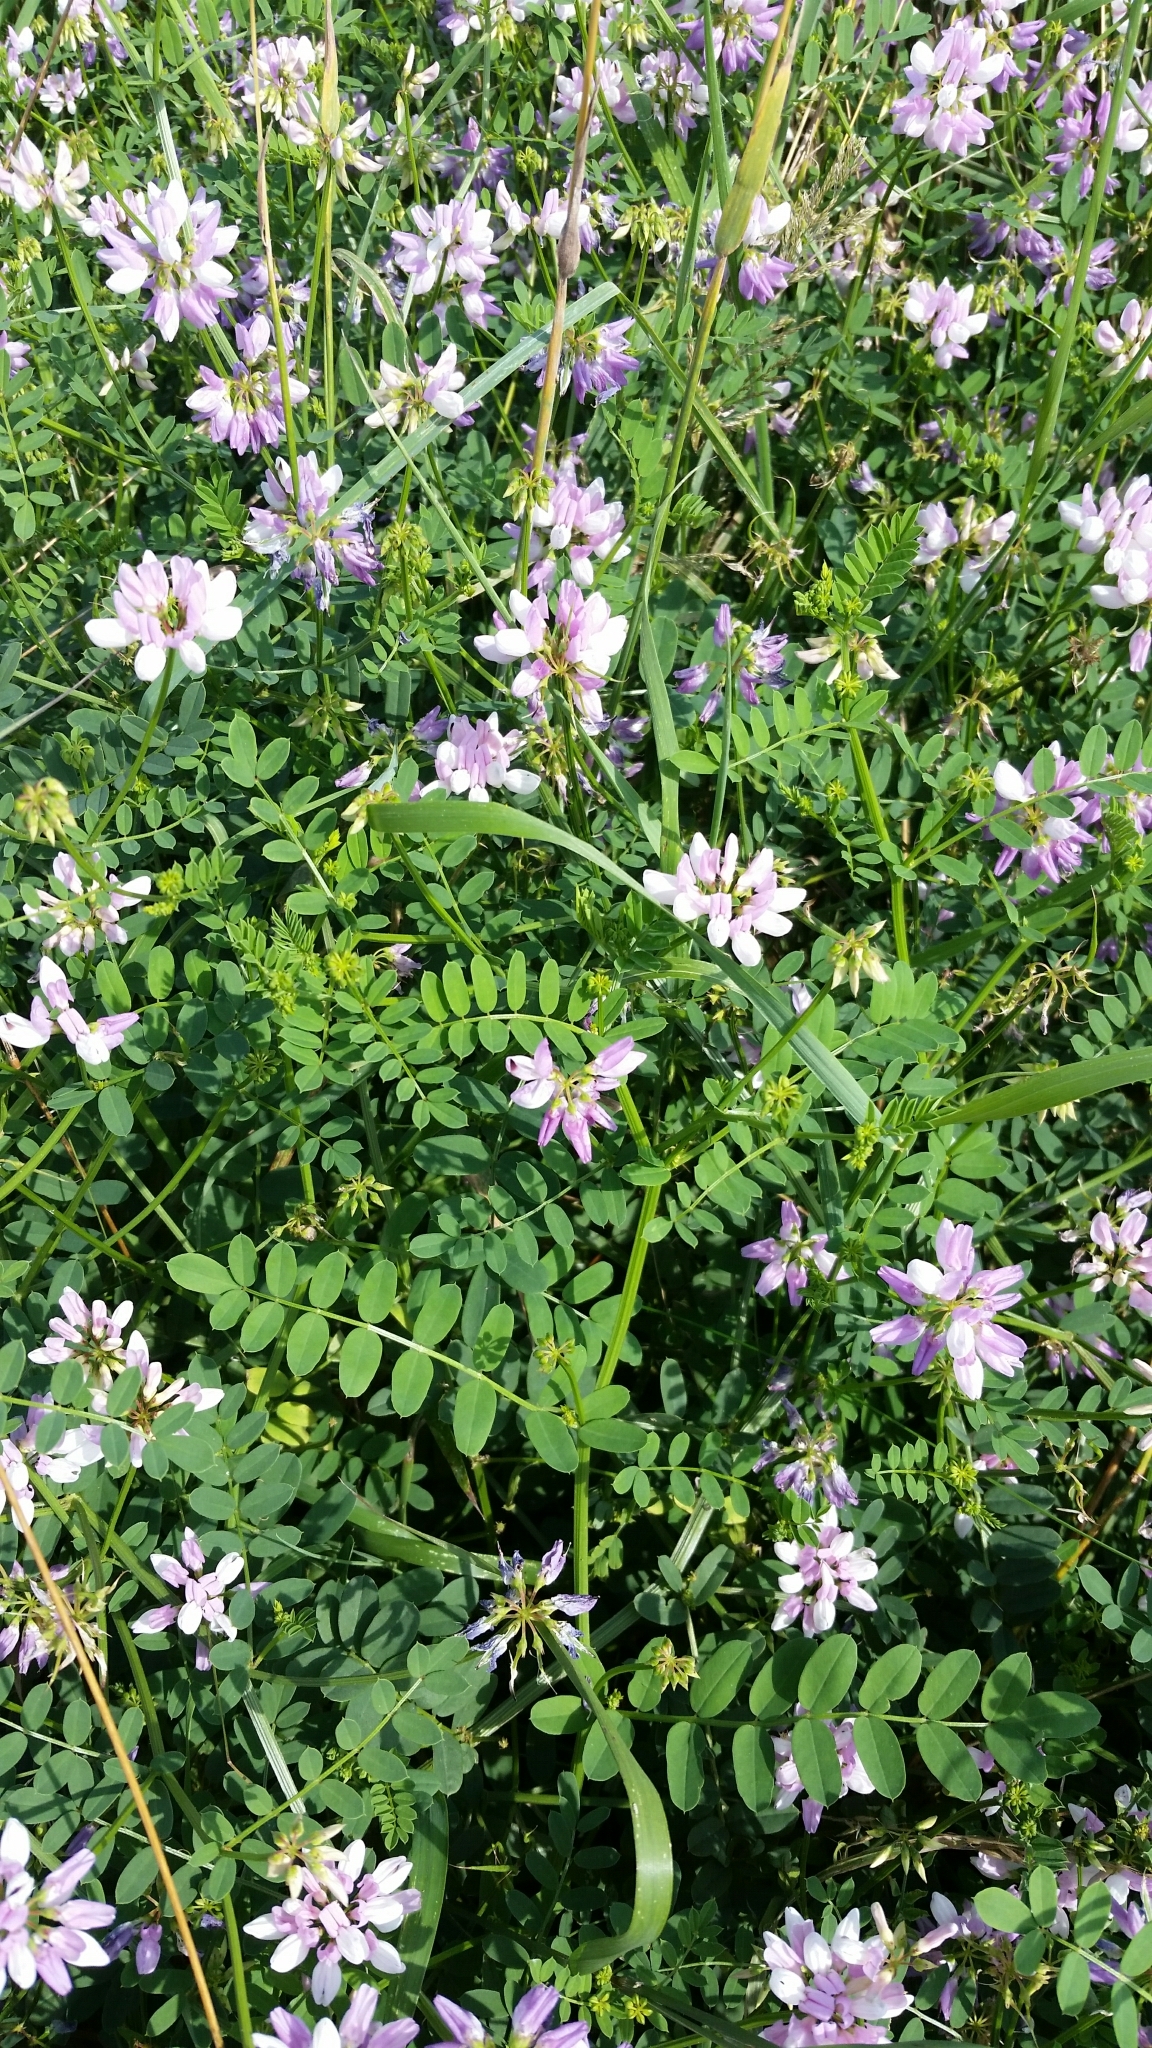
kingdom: Plantae
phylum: Tracheophyta
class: Magnoliopsida
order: Fabales
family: Fabaceae
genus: Medicago
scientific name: Medicago sativa
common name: Alfalfa
